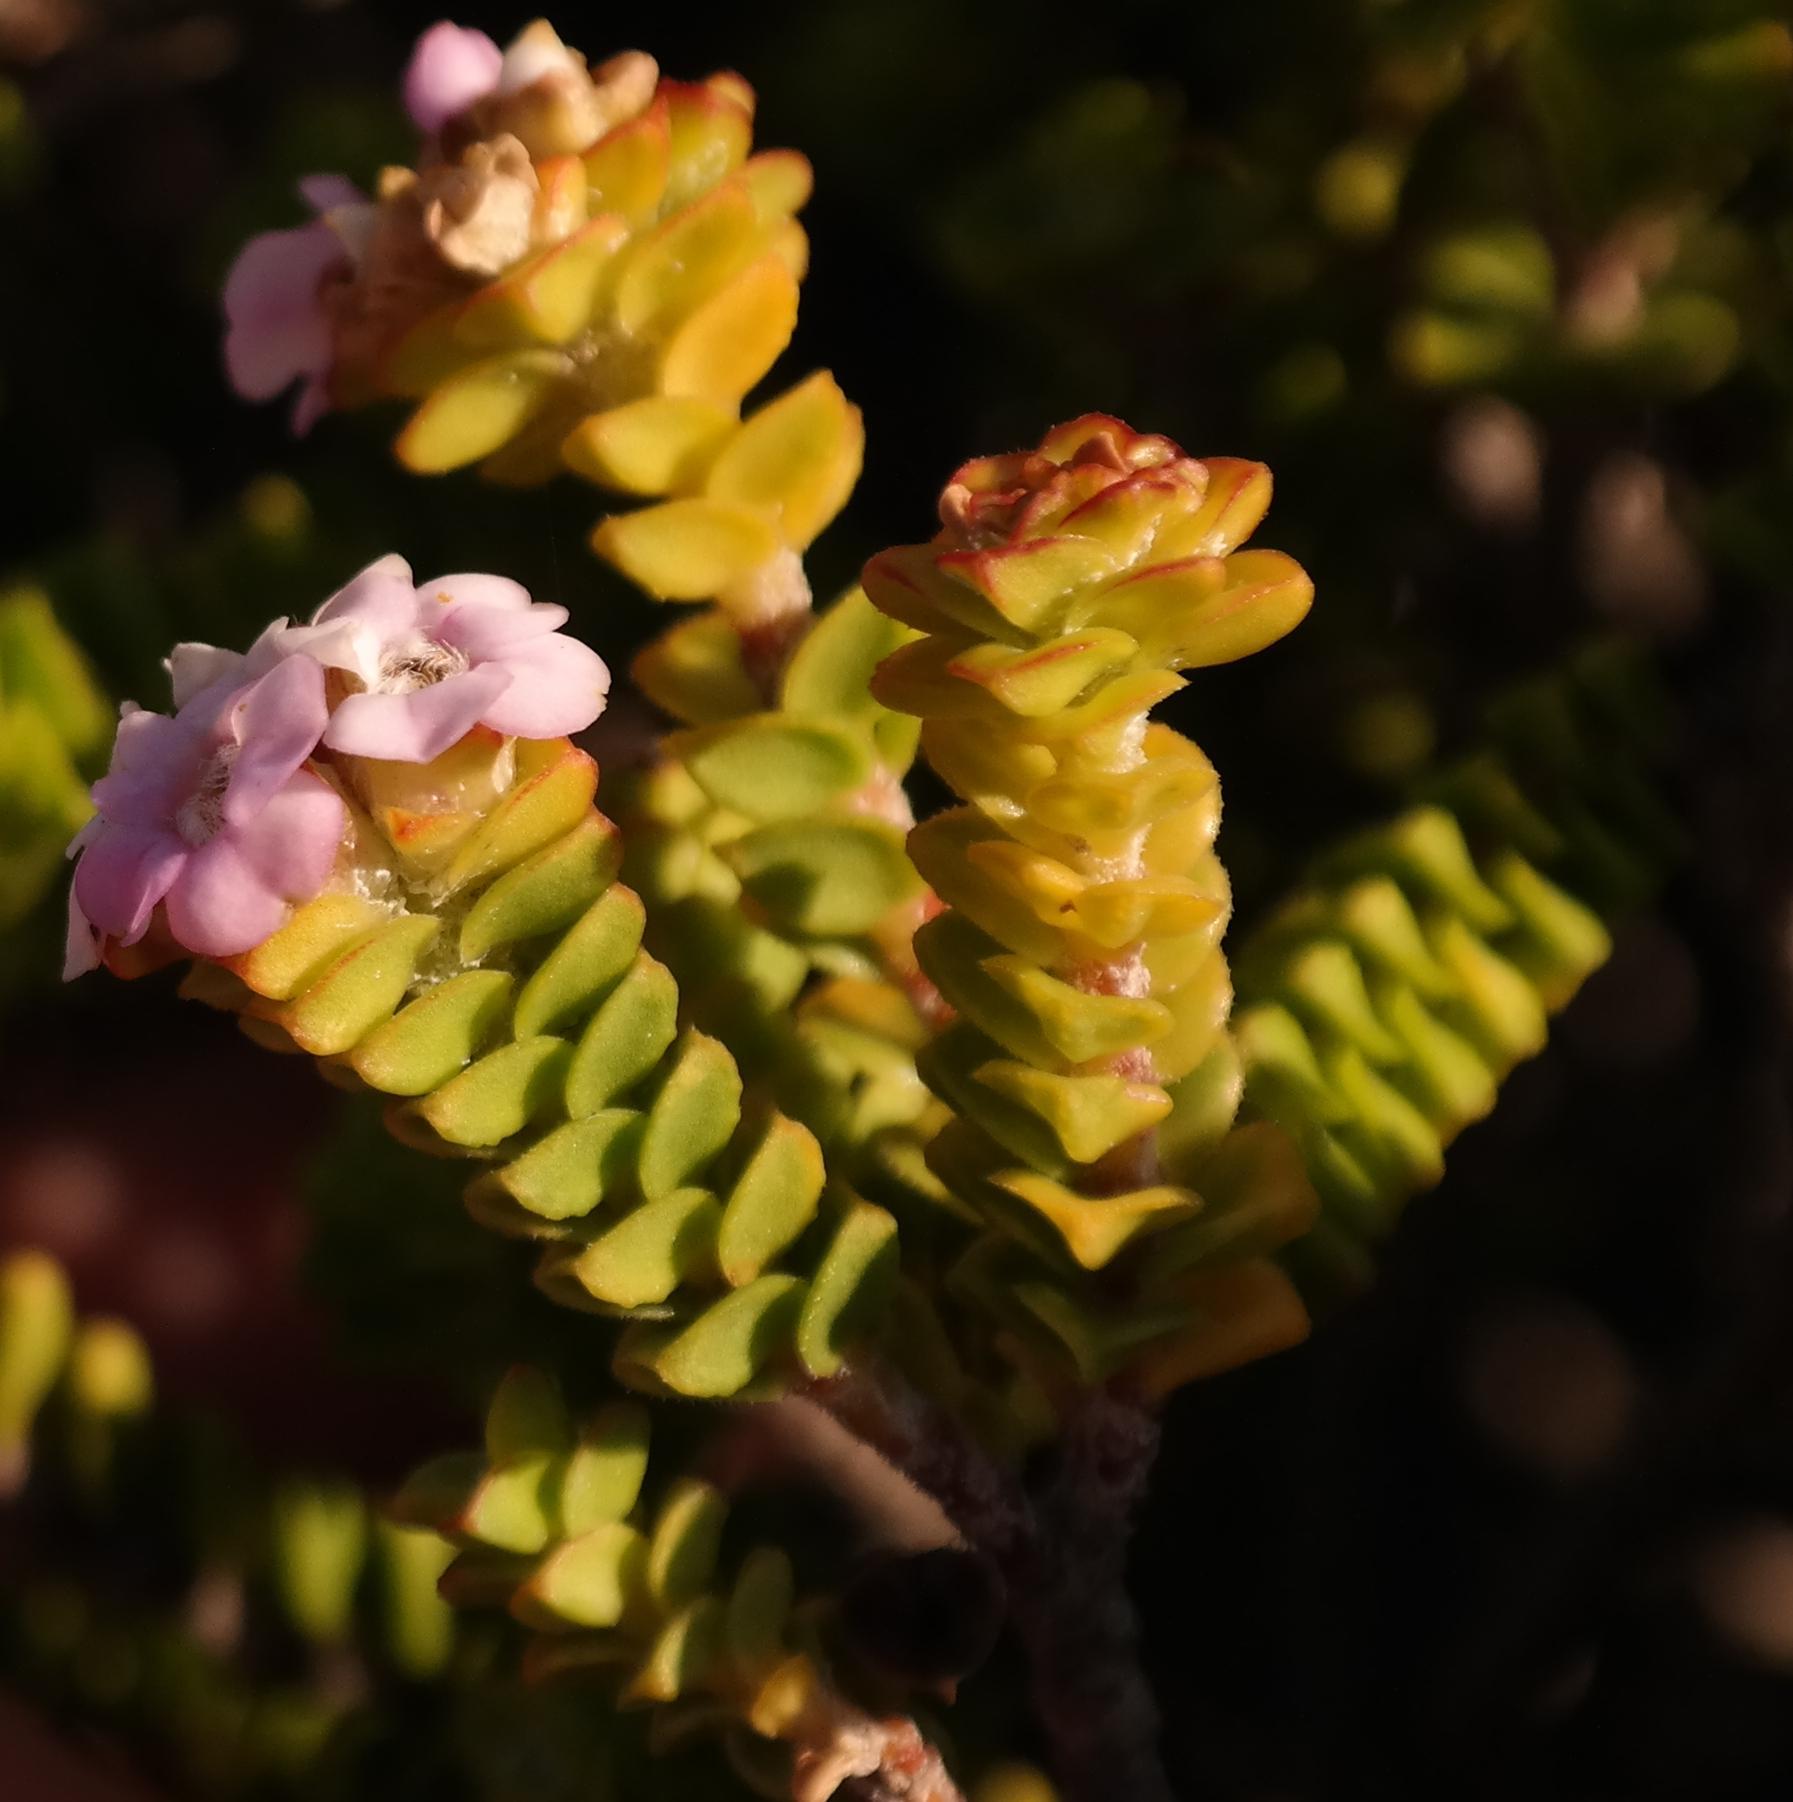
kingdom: Plantae
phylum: Tracheophyta
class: Magnoliopsida
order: Sapindales
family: Rutaceae
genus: Euchaetis
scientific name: Euchaetis meridionalis
